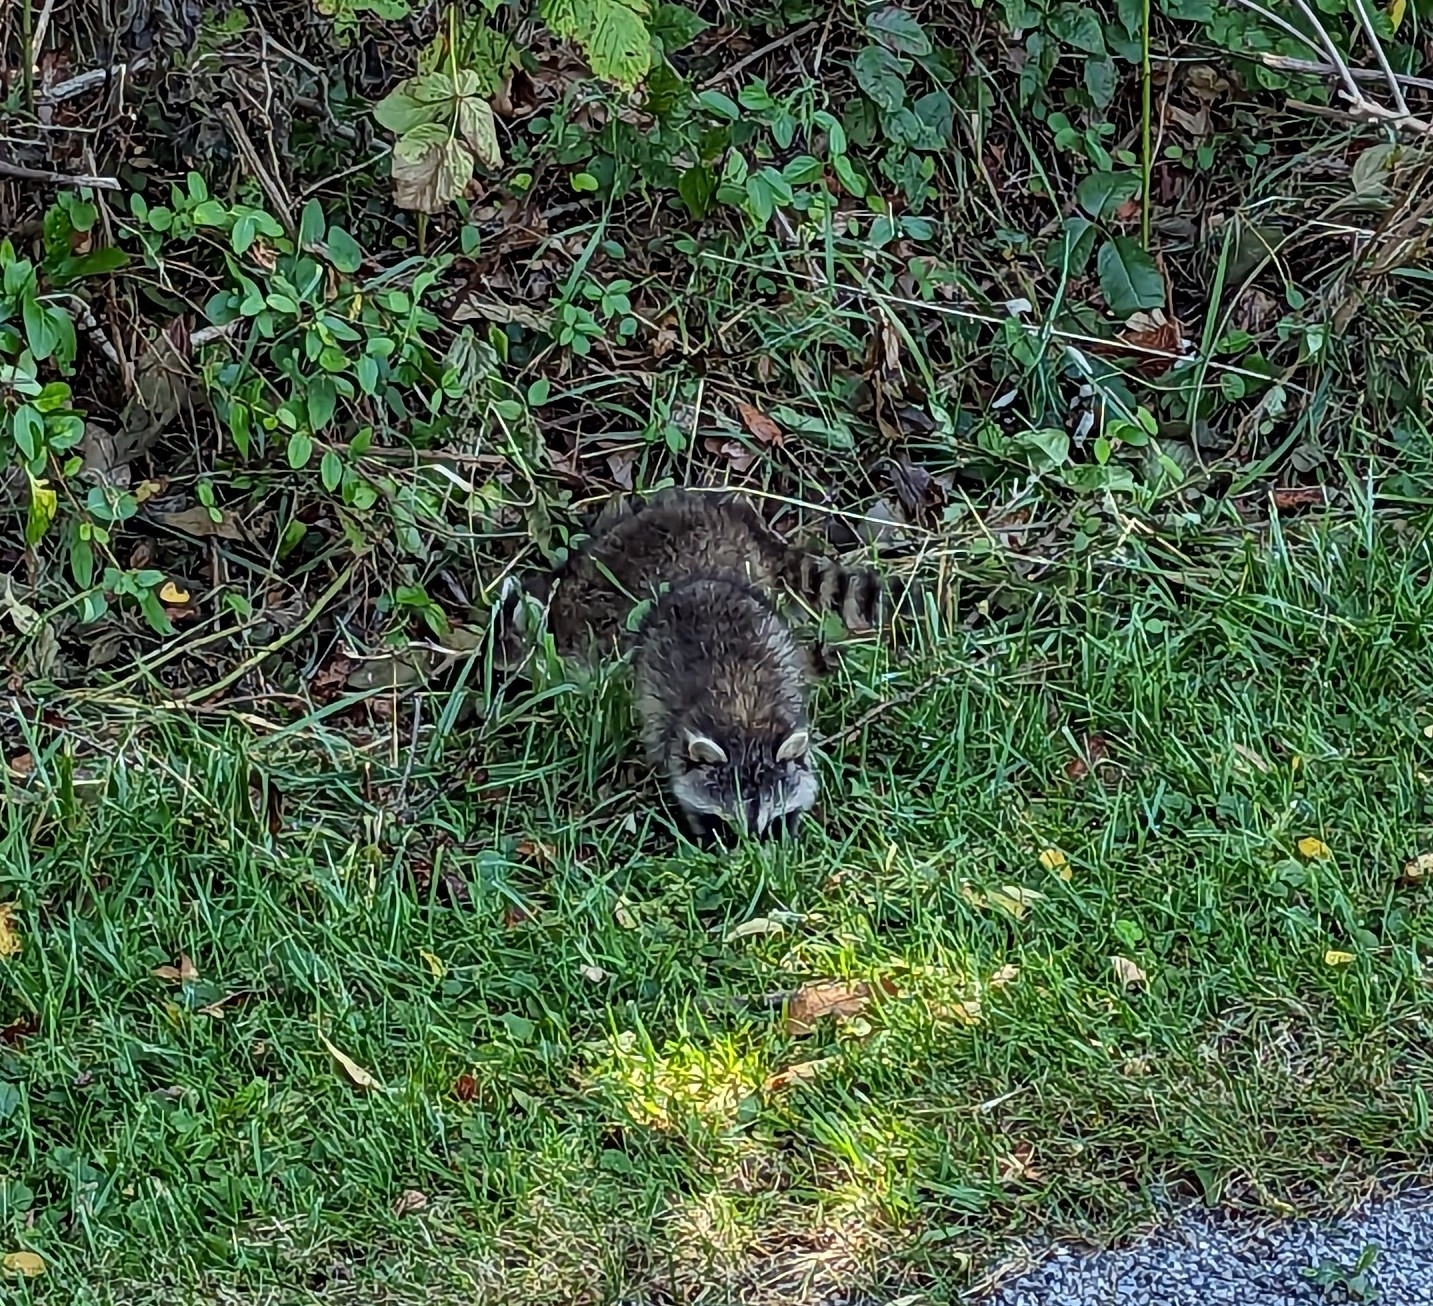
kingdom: Animalia
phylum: Chordata
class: Mammalia
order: Carnivora
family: Procyonidae
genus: Procyon
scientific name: Procyon lotor
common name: Raccoon
